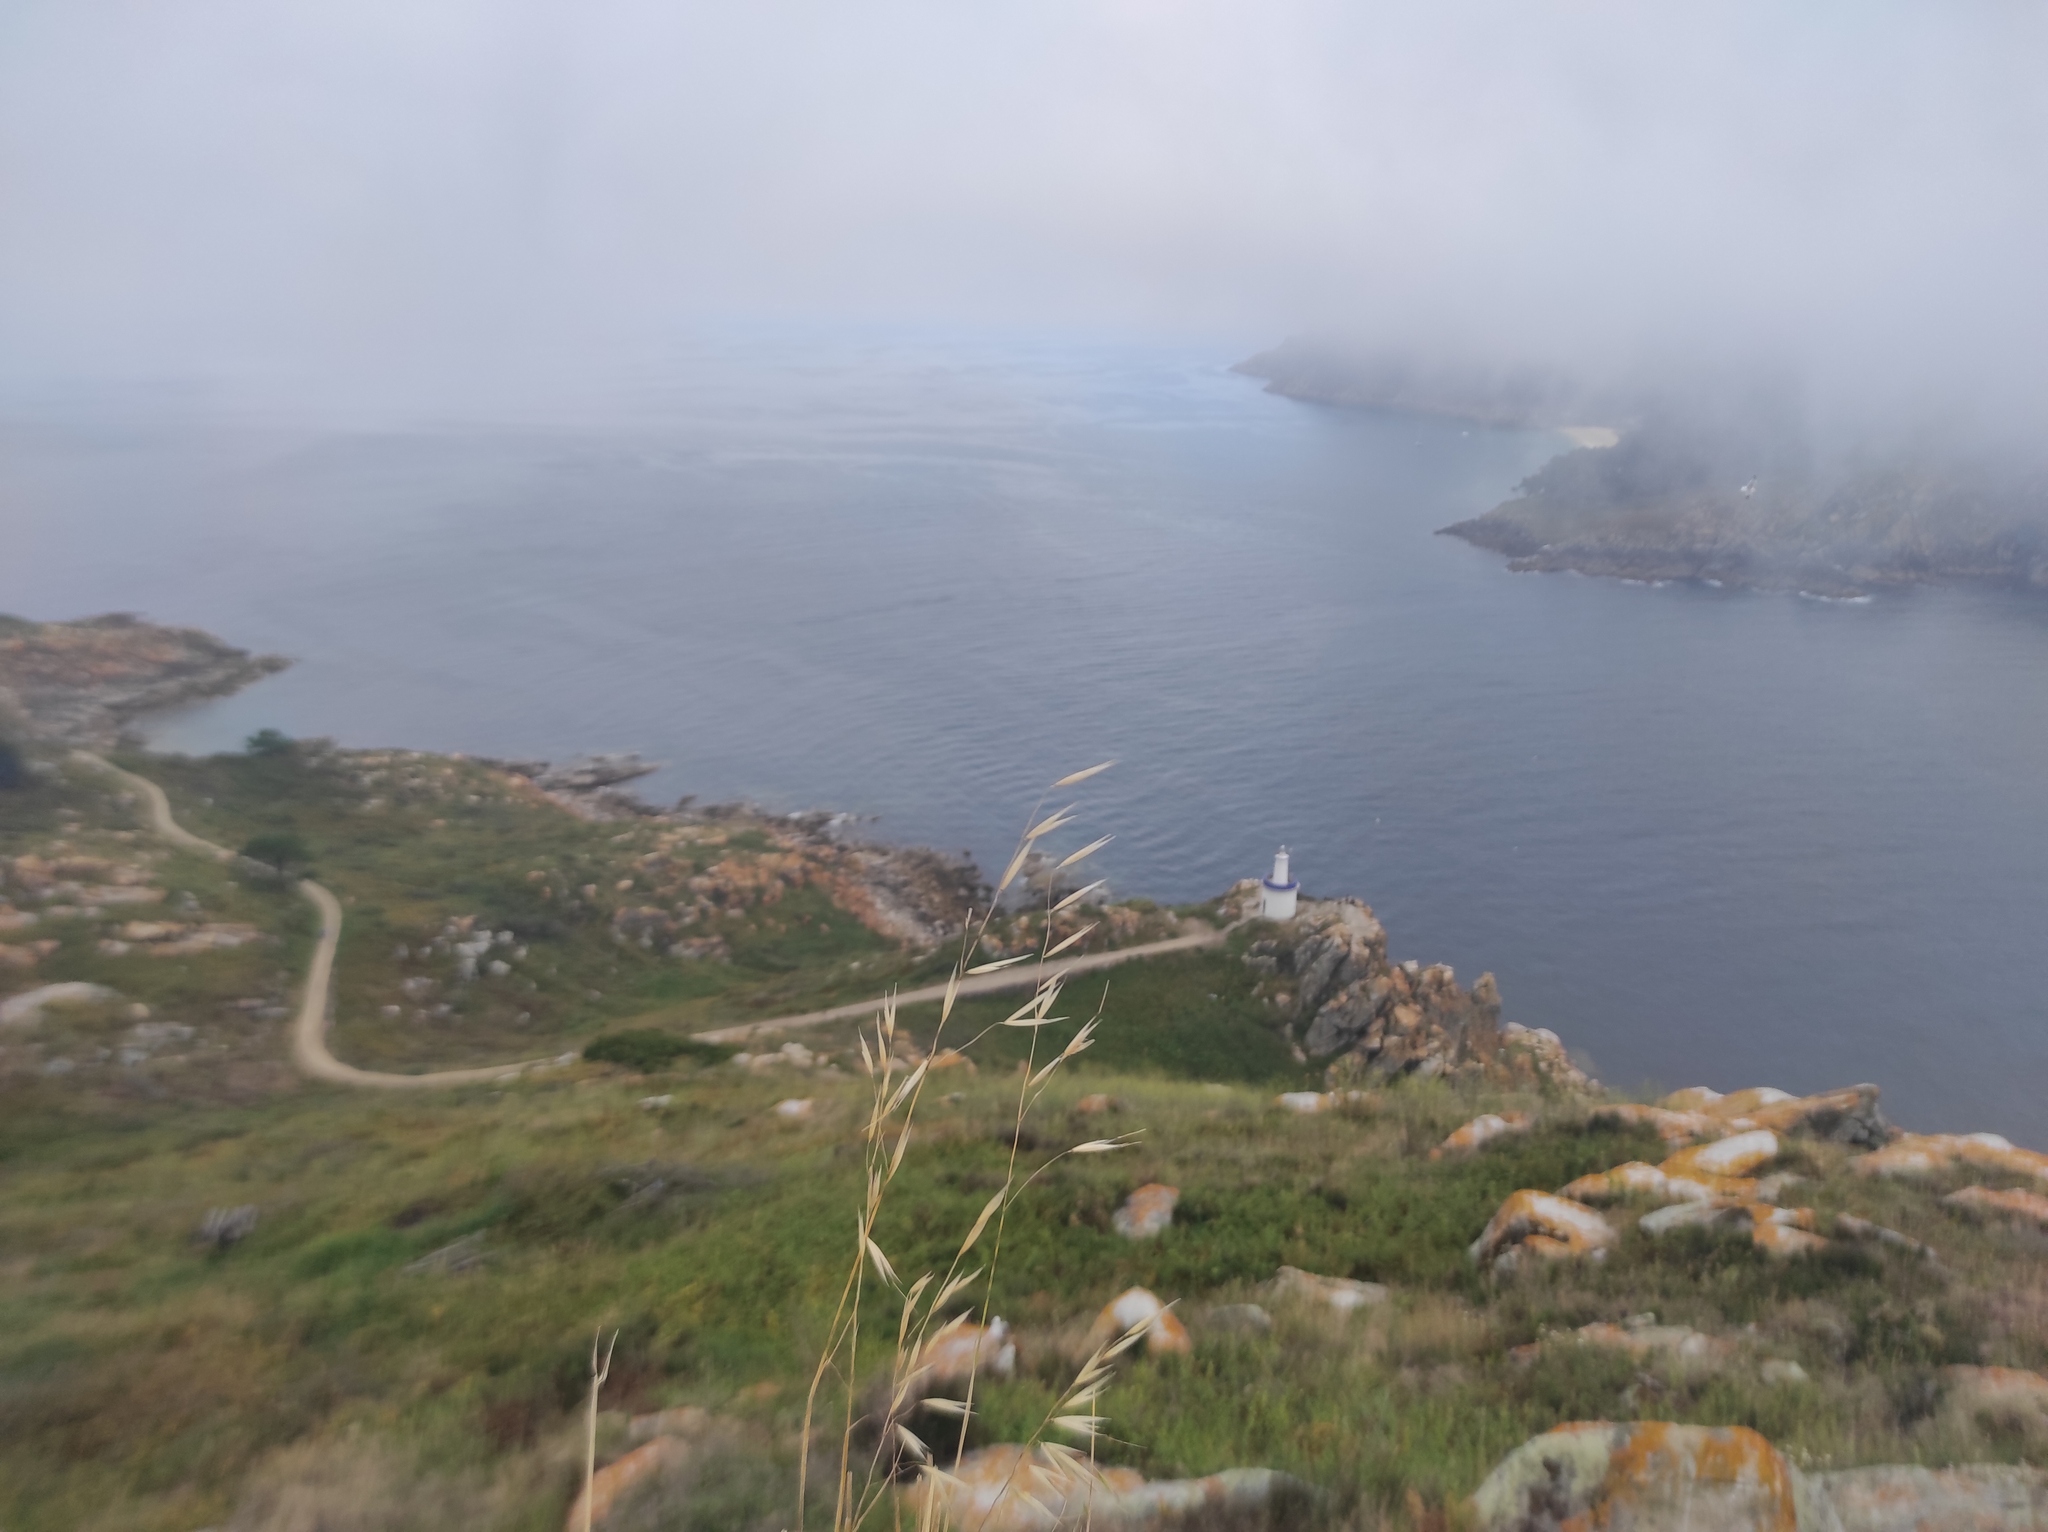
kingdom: Animalia
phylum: Arthropoda
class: Insecta
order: Coleoptera
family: Tenebrionidae
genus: Heliotaurus
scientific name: Heliotaurus ruficollis
